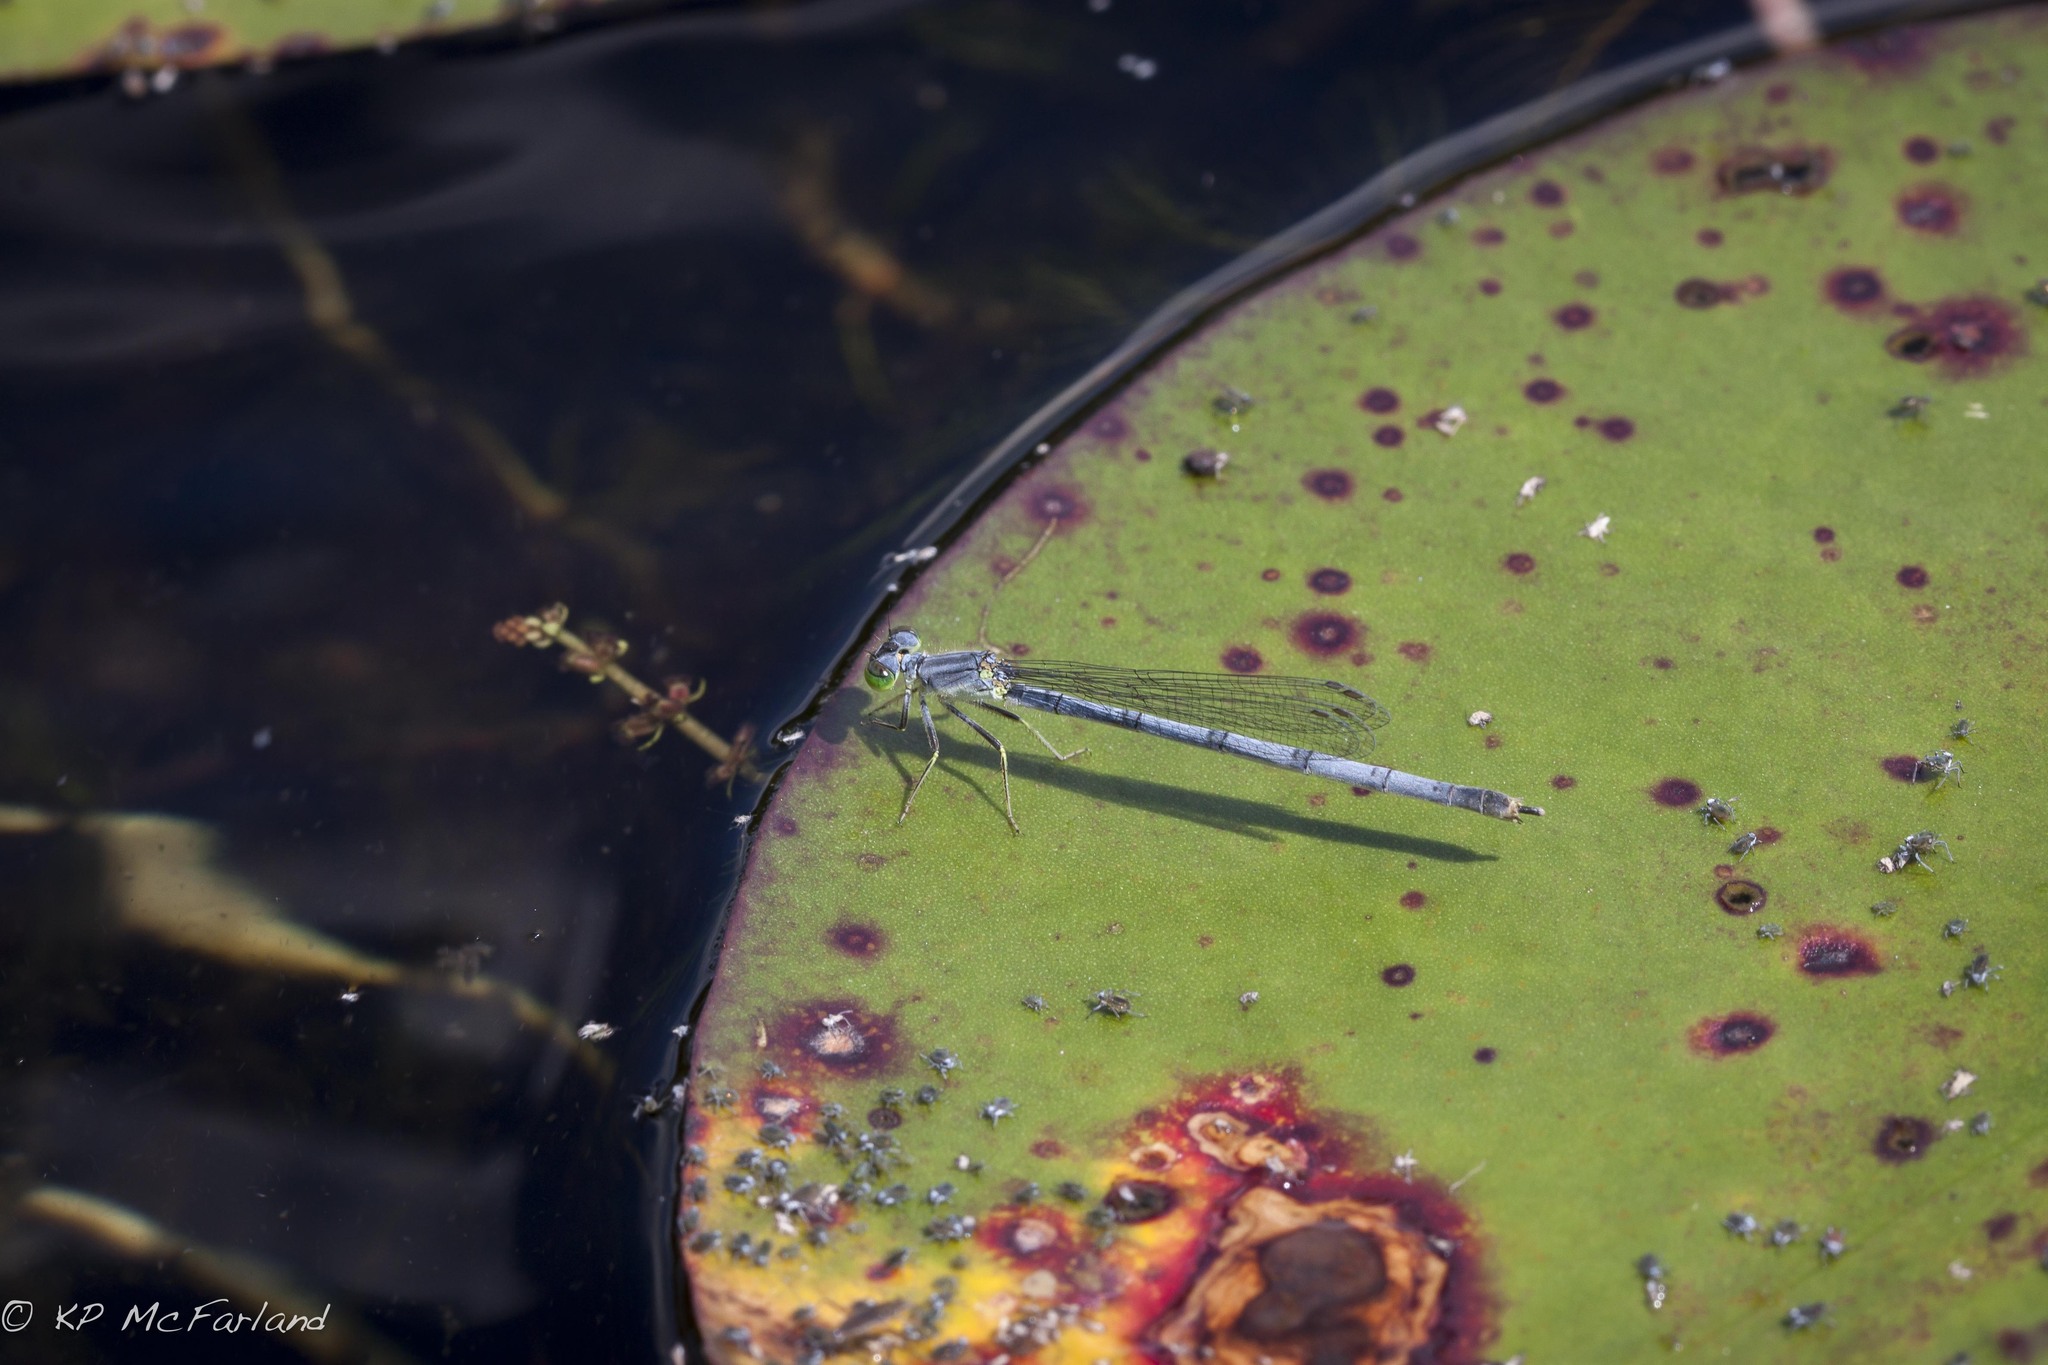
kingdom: Animalia
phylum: Arthropoda
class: Insecta
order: Odonata
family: Coenagrionidae
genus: Ischnura
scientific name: Ischnura verticalis
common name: Eastern forktail
